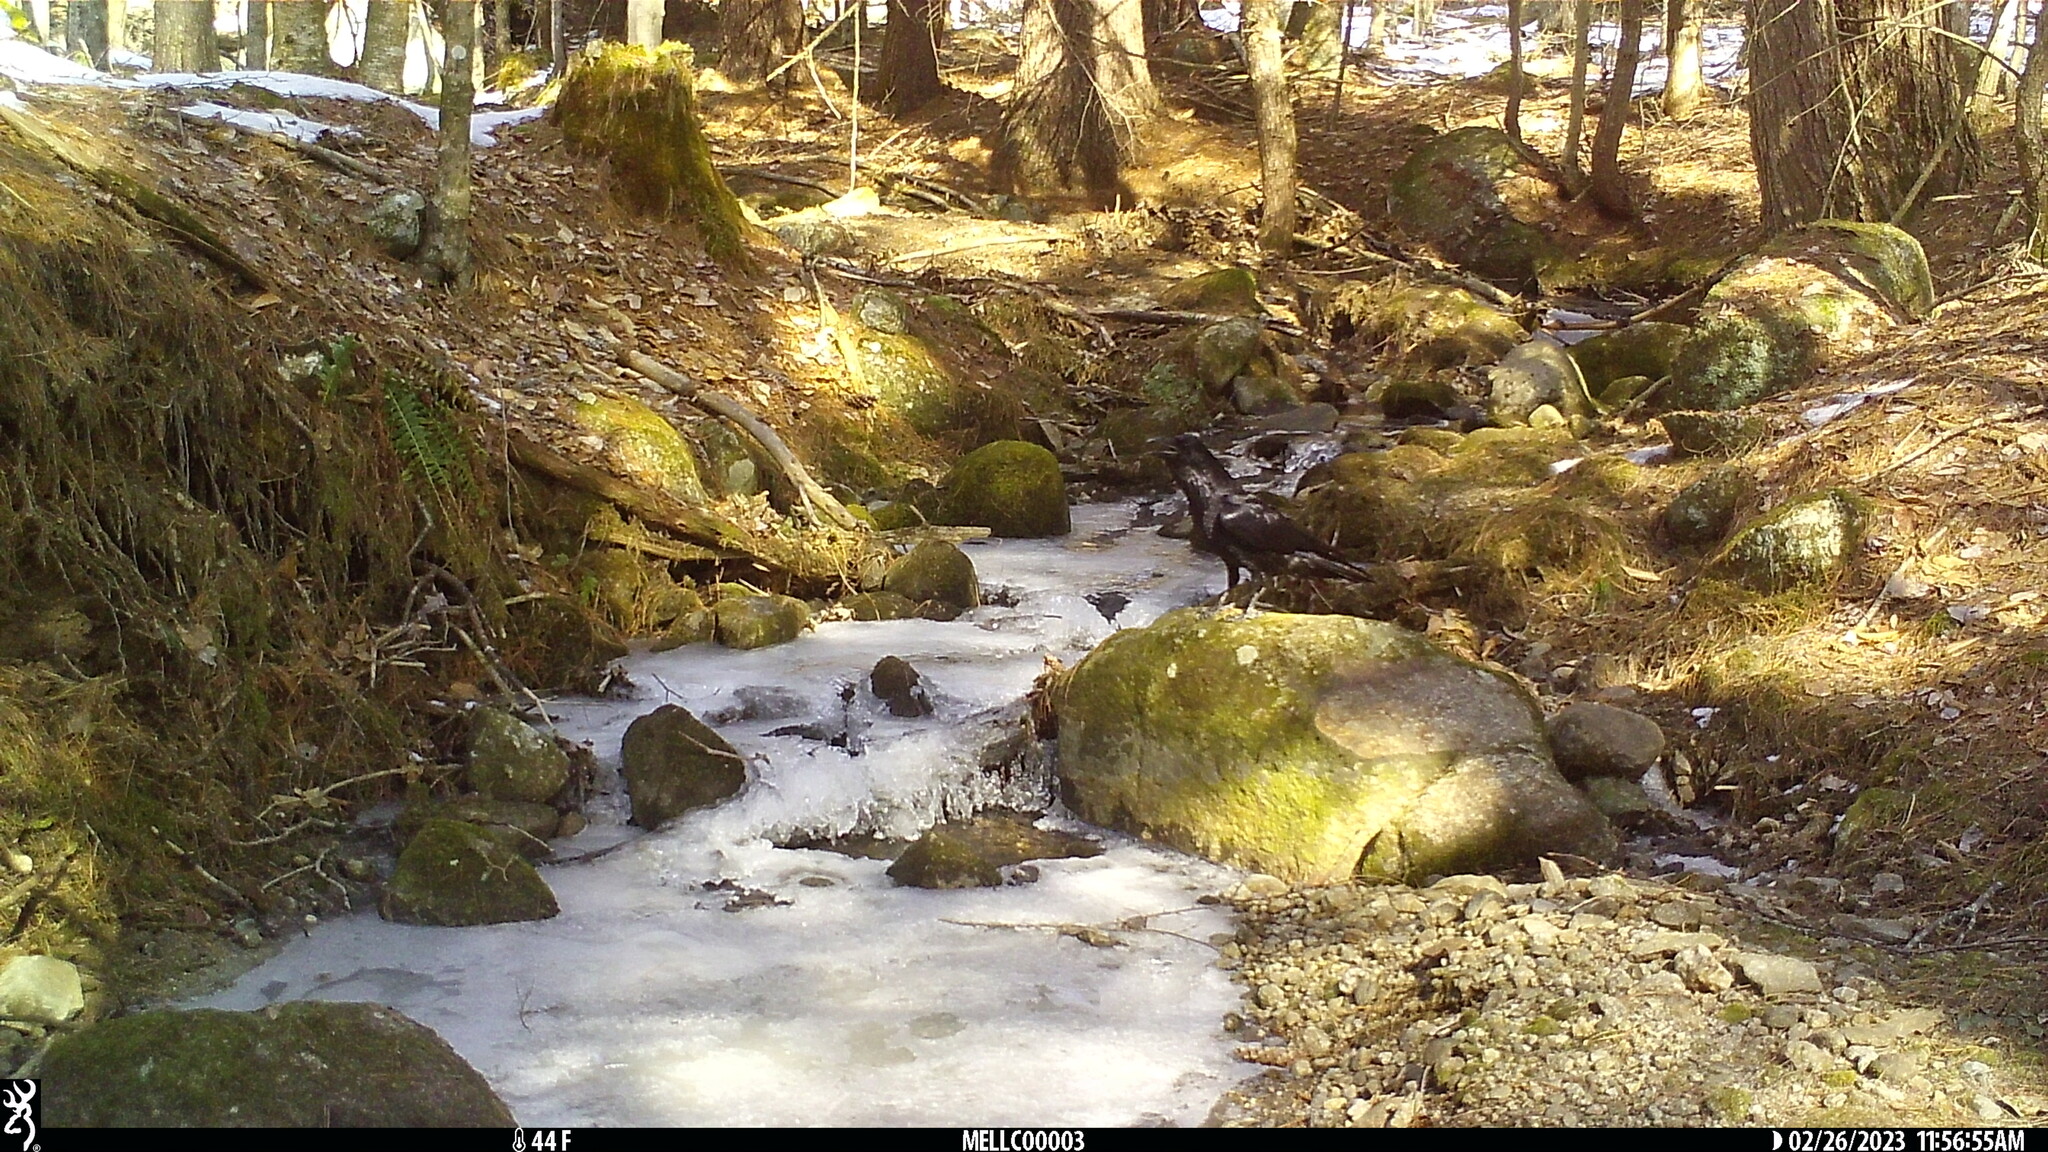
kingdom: Animalia
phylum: Chordata
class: Aves
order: Passeriformes
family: Corvidae
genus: Corvus
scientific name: Corvus corax
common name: Common raven
